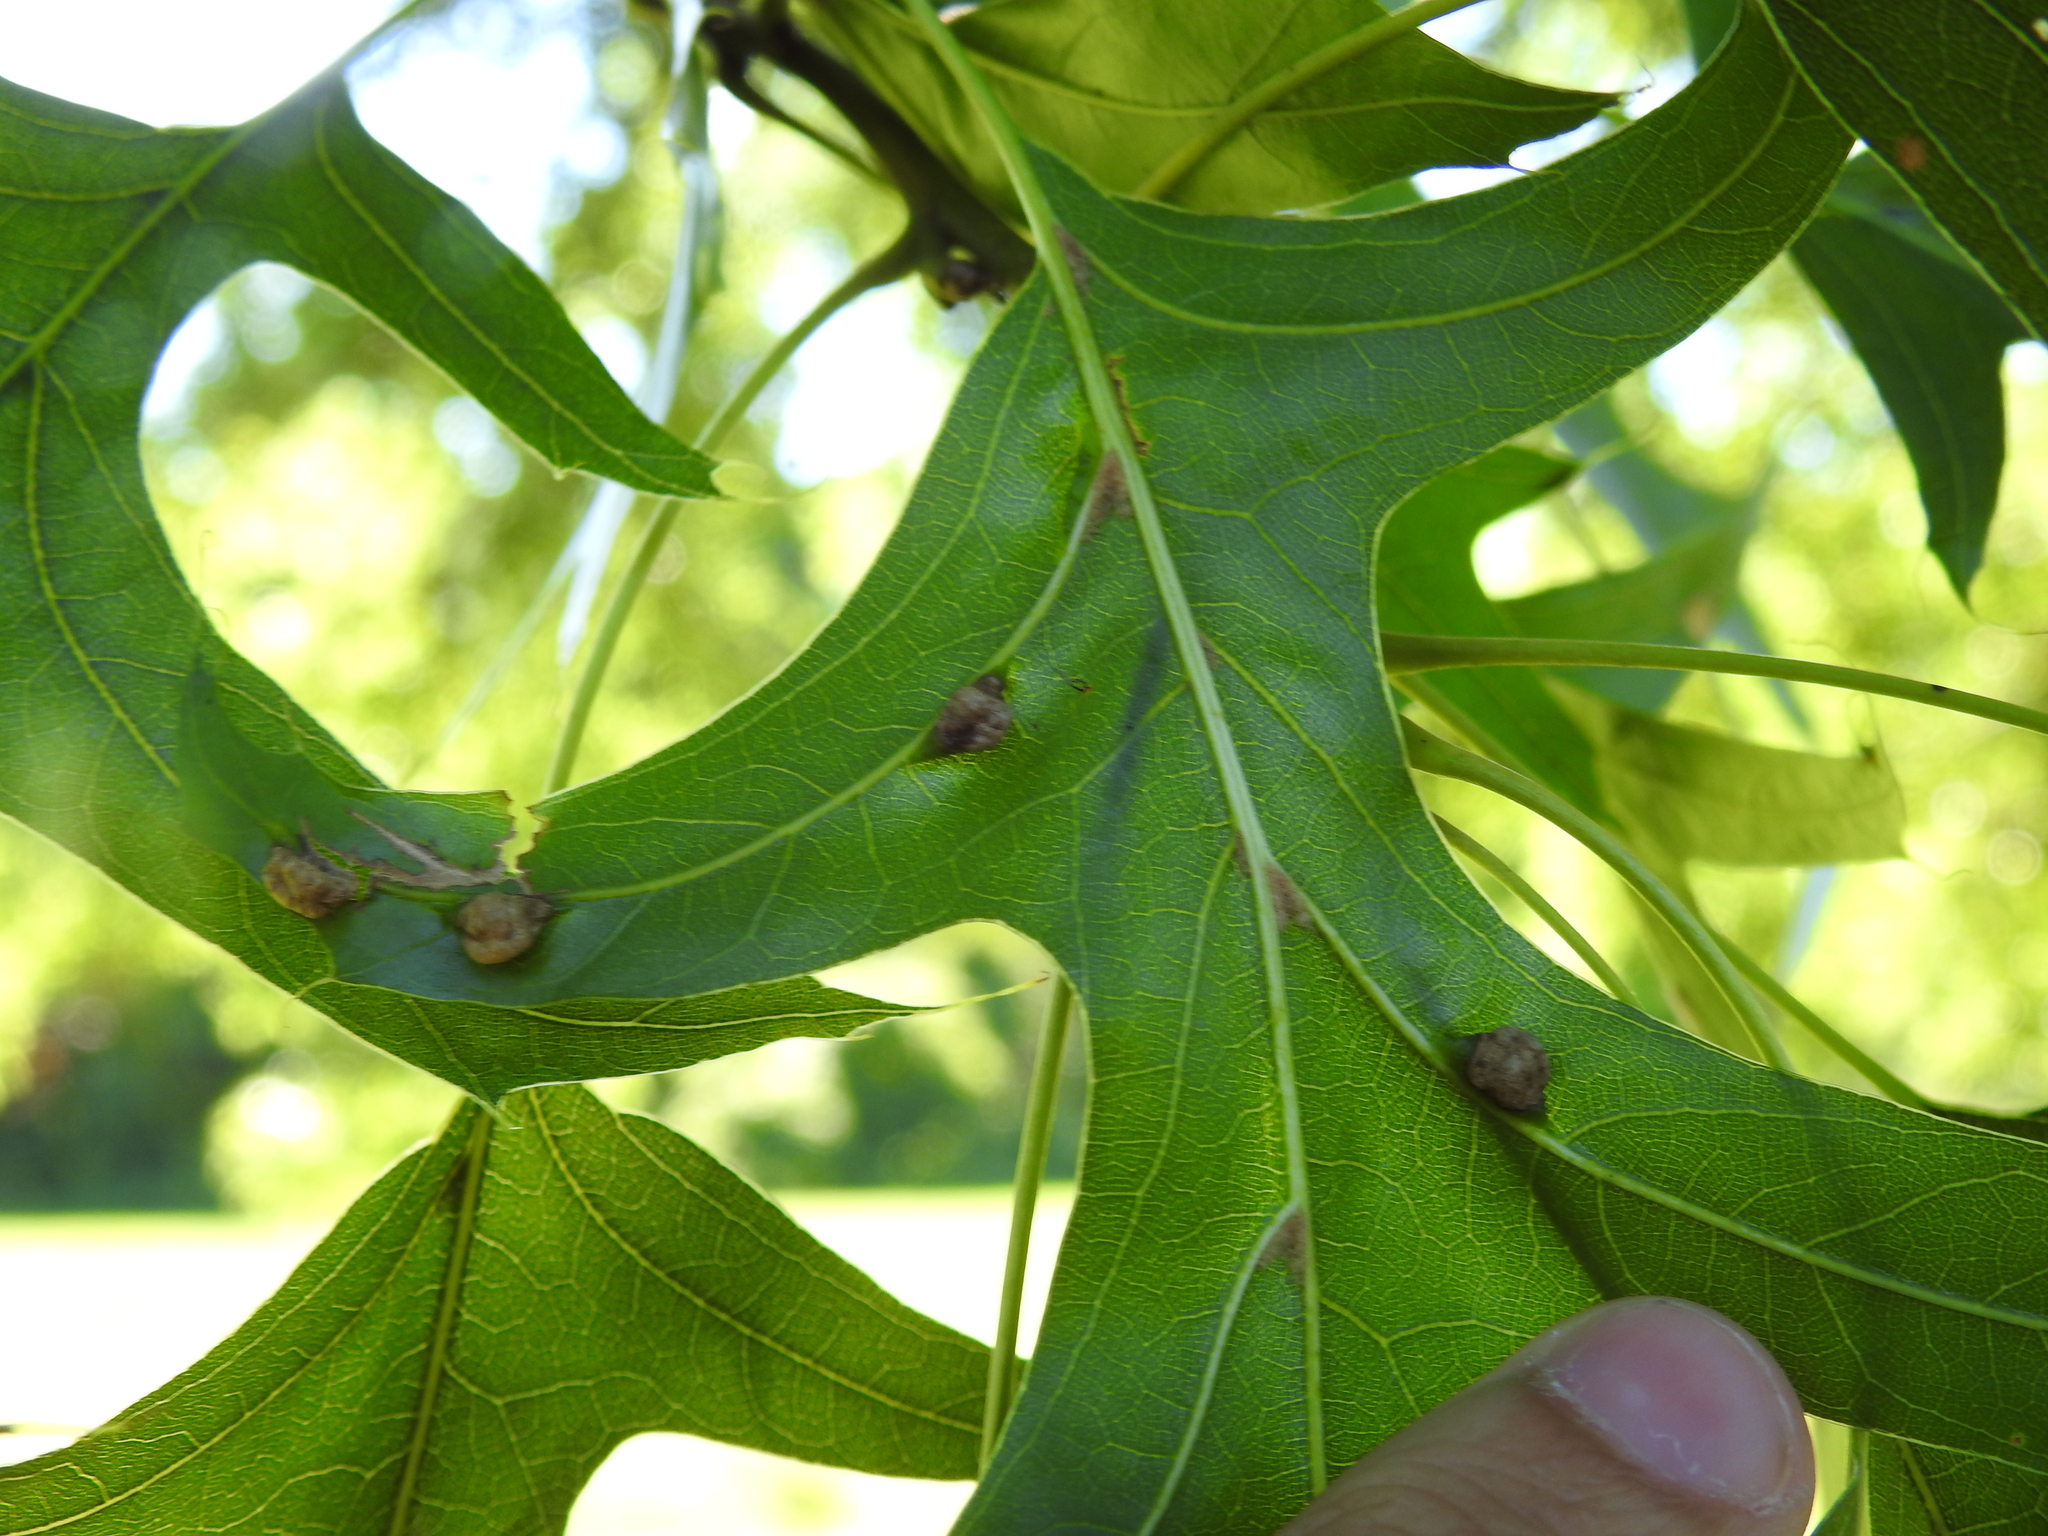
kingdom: Animalia
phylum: Arthropoda
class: Insecta
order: Diptera
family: Cecidomyiidae
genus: Macrodiplosis
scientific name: Macrodiplosis majalis
